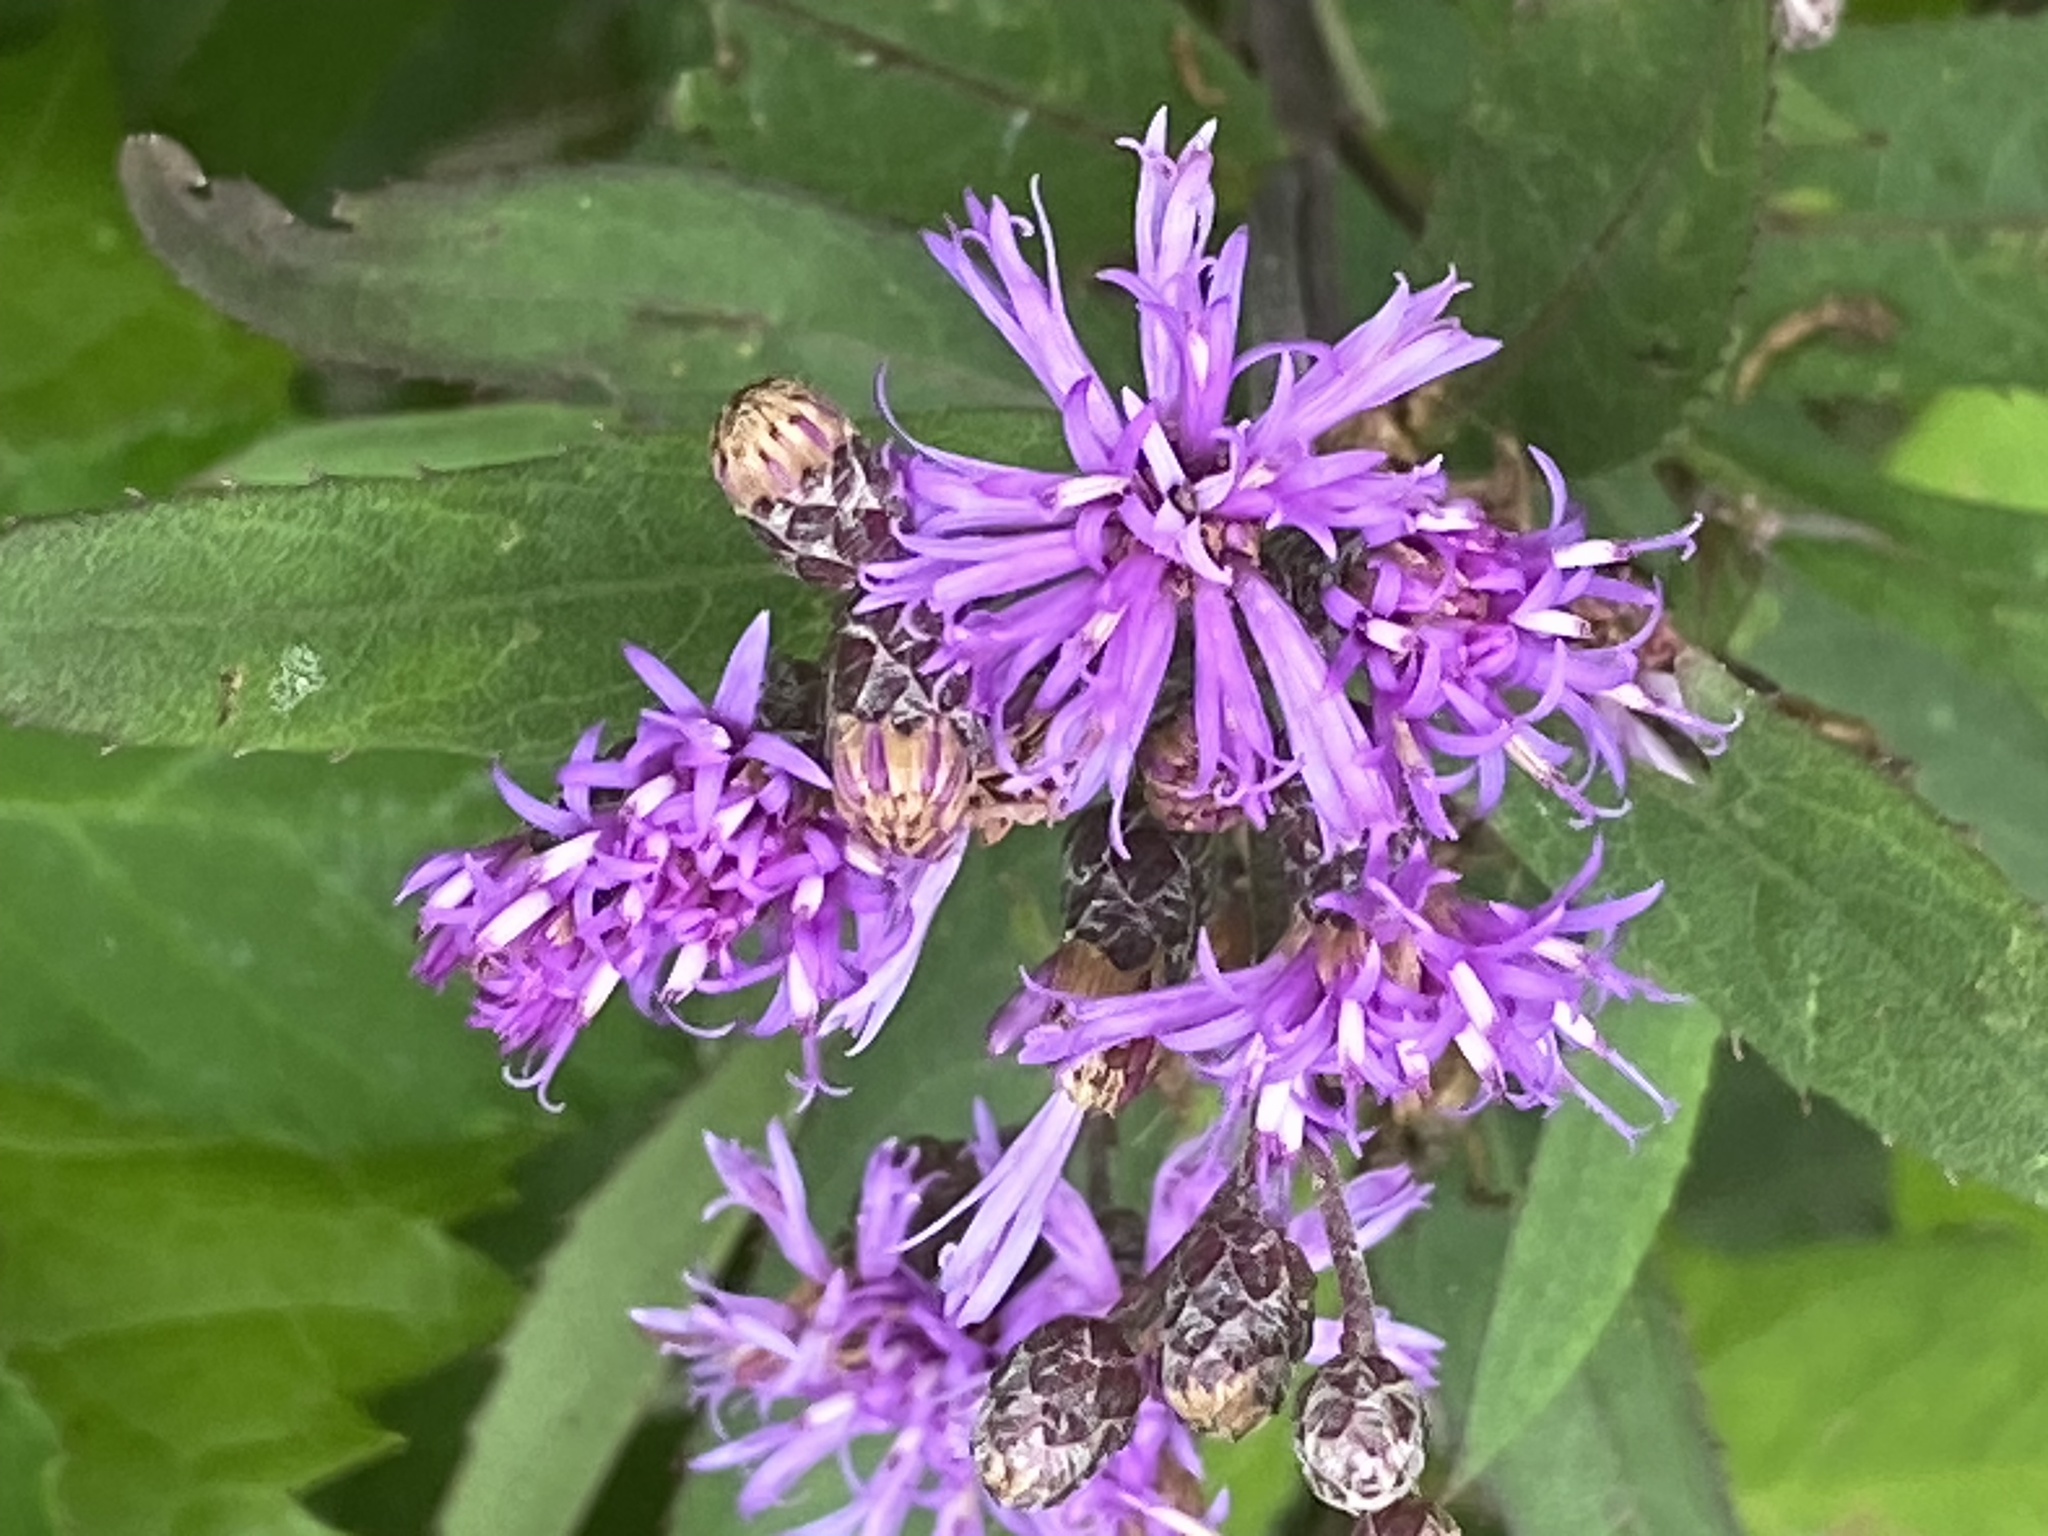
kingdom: Plantae
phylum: Tracheophyta
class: Magnoliopsida
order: Asterales
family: Asteraceae
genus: Vernonia
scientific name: Vernonia fasciculata
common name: Fascicled ironweed
